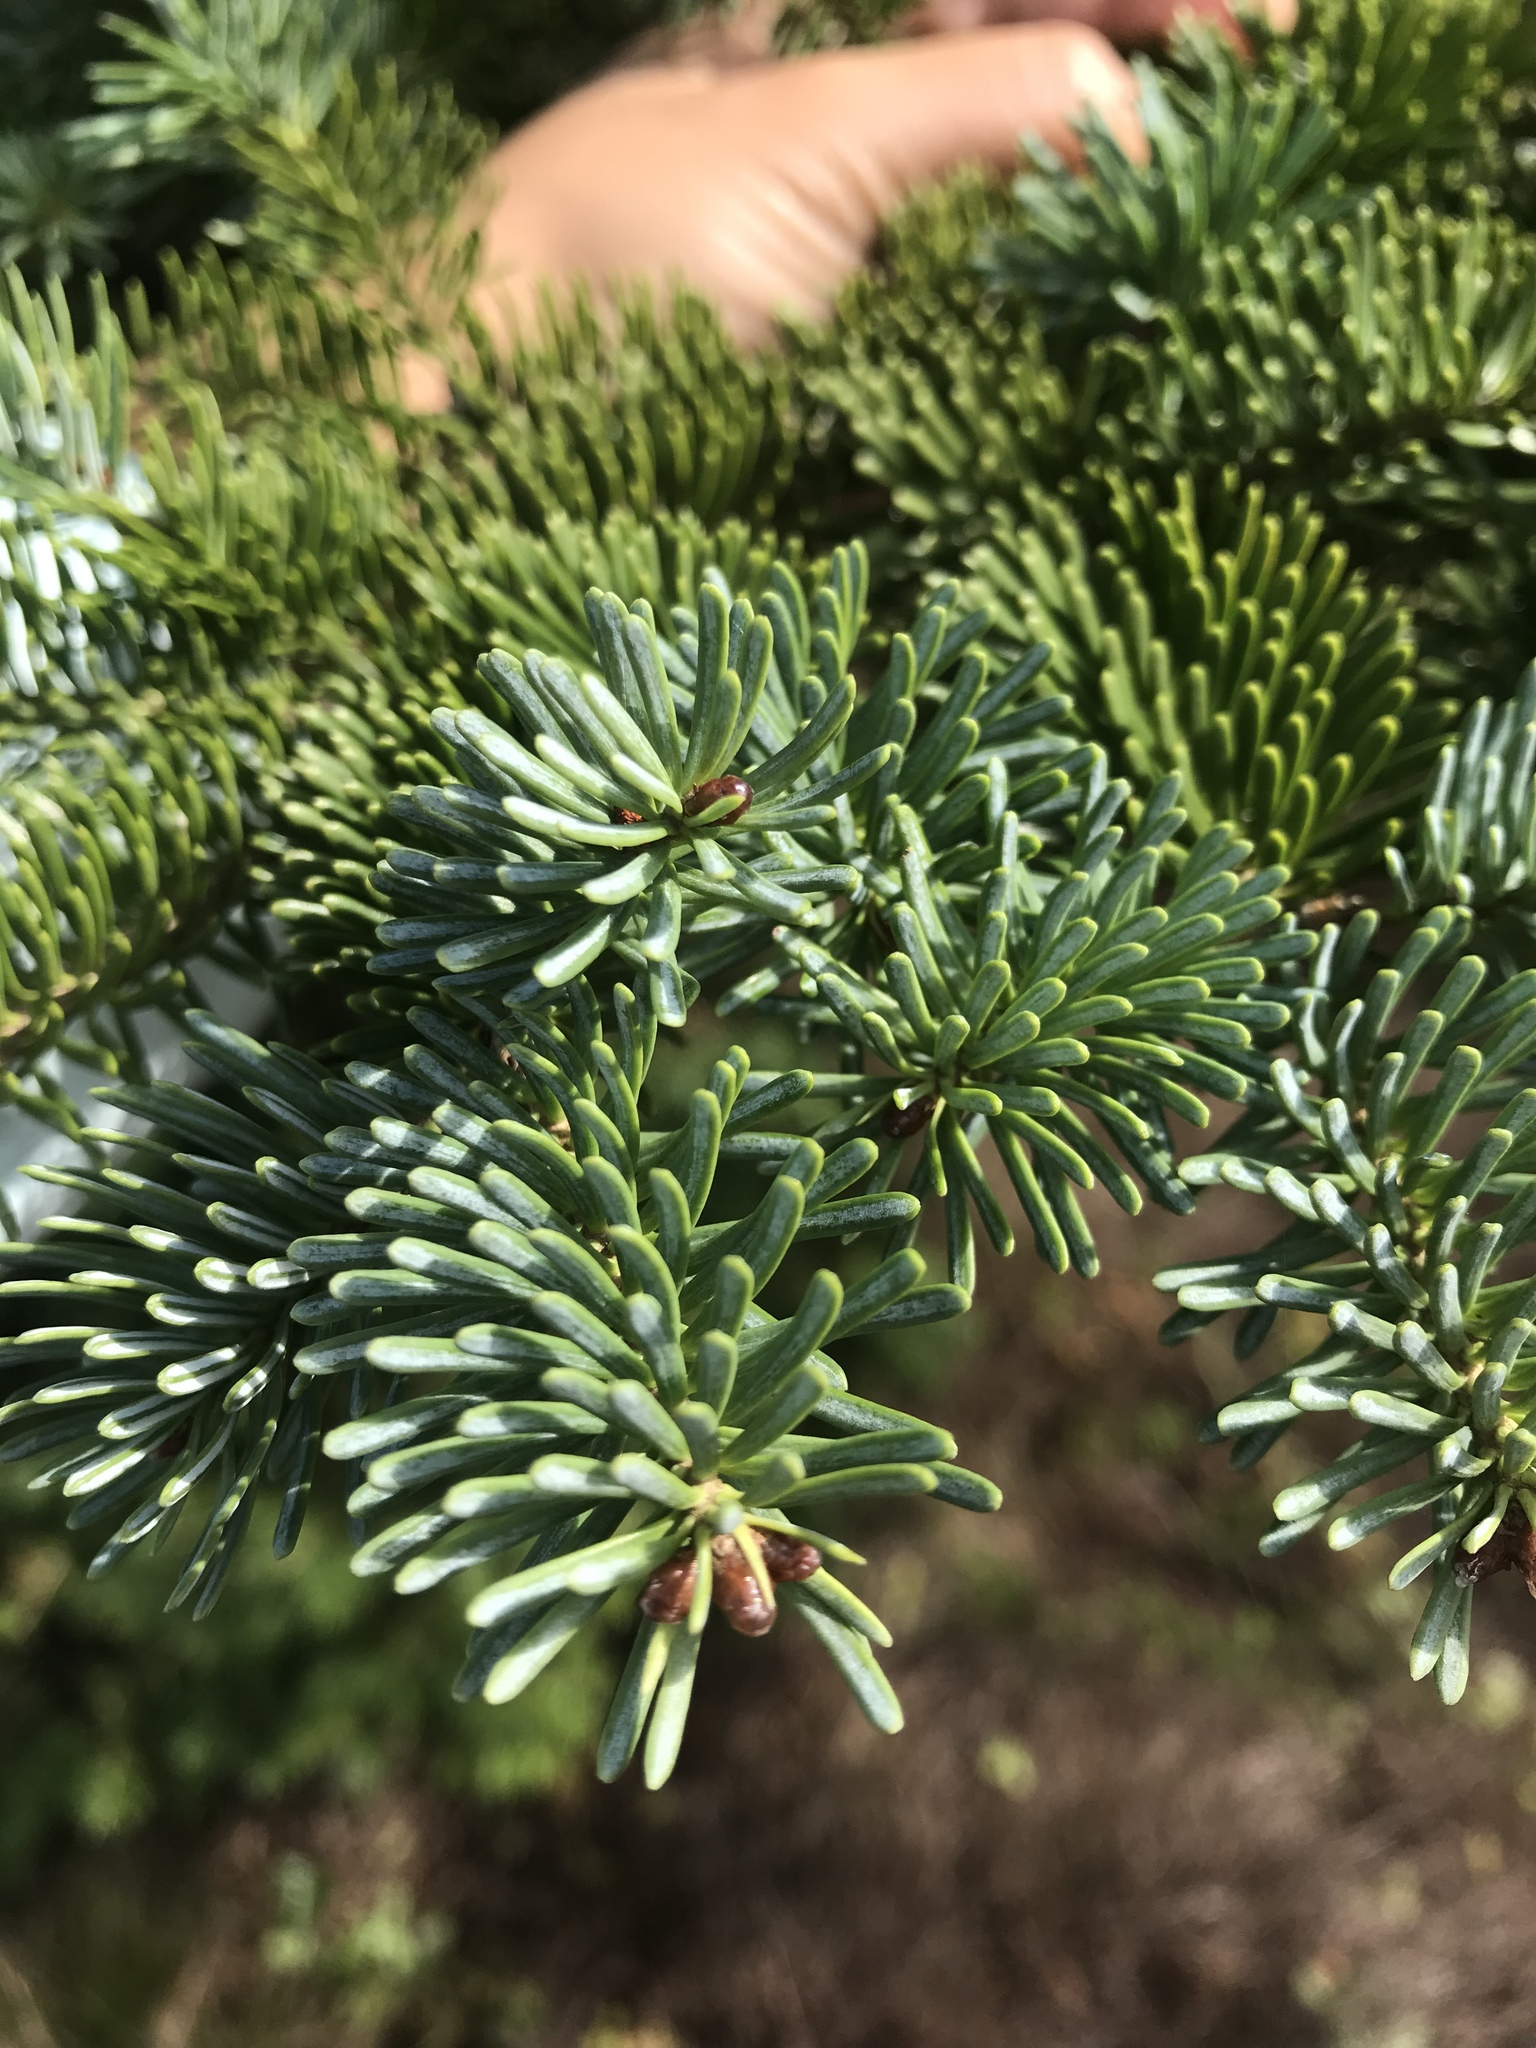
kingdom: Plantae
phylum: Tracheophyta
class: Pinopsida
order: Pinales
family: Pinaceae
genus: Abies
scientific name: Abies balsamea
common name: Balsam fir
